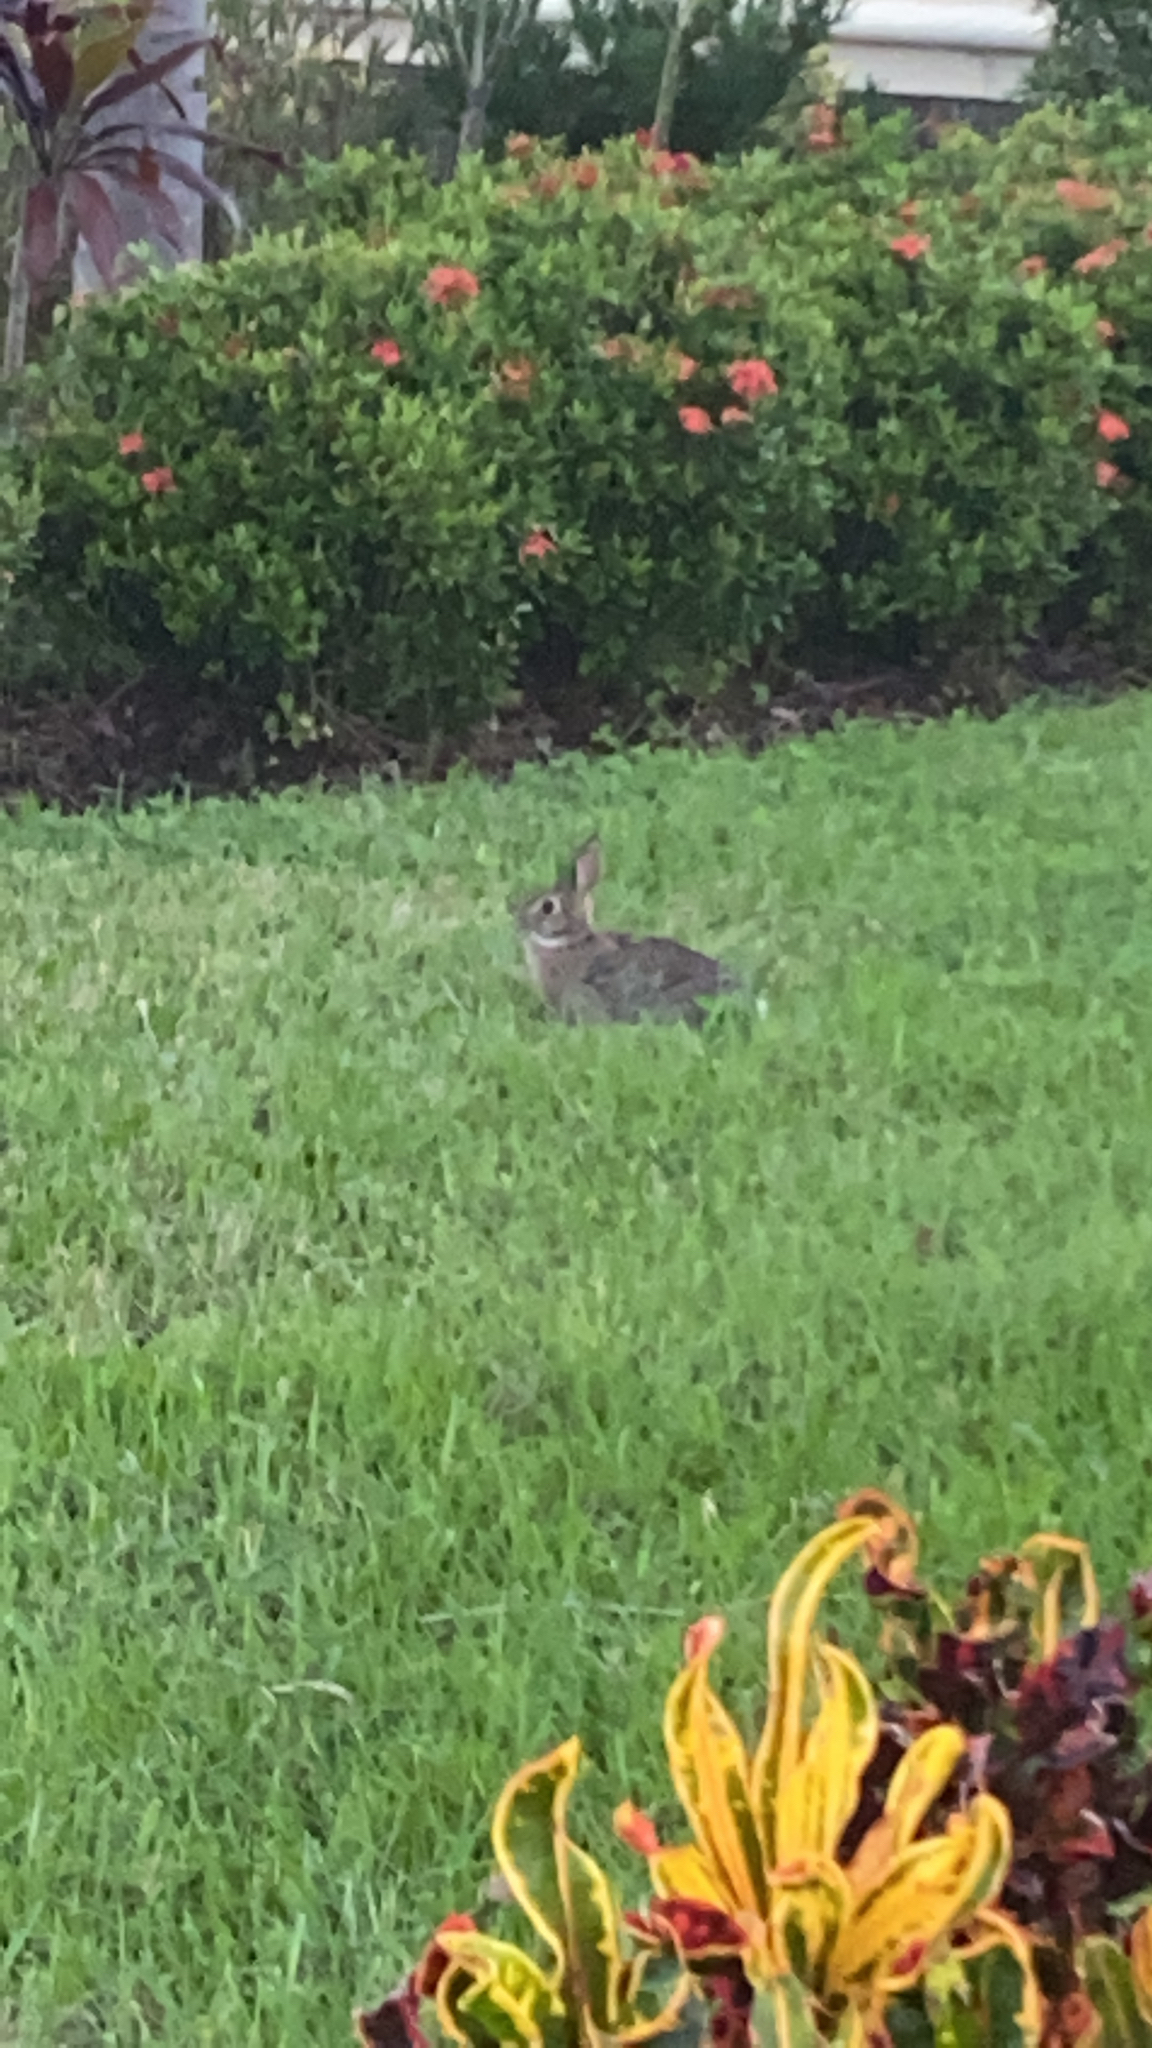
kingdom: Animalia
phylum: Chordata
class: Mammalia
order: Lagomorpha
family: Leporidae
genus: Sylvilagus
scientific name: Sylvilagus floridanus
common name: Eastern cottontail
